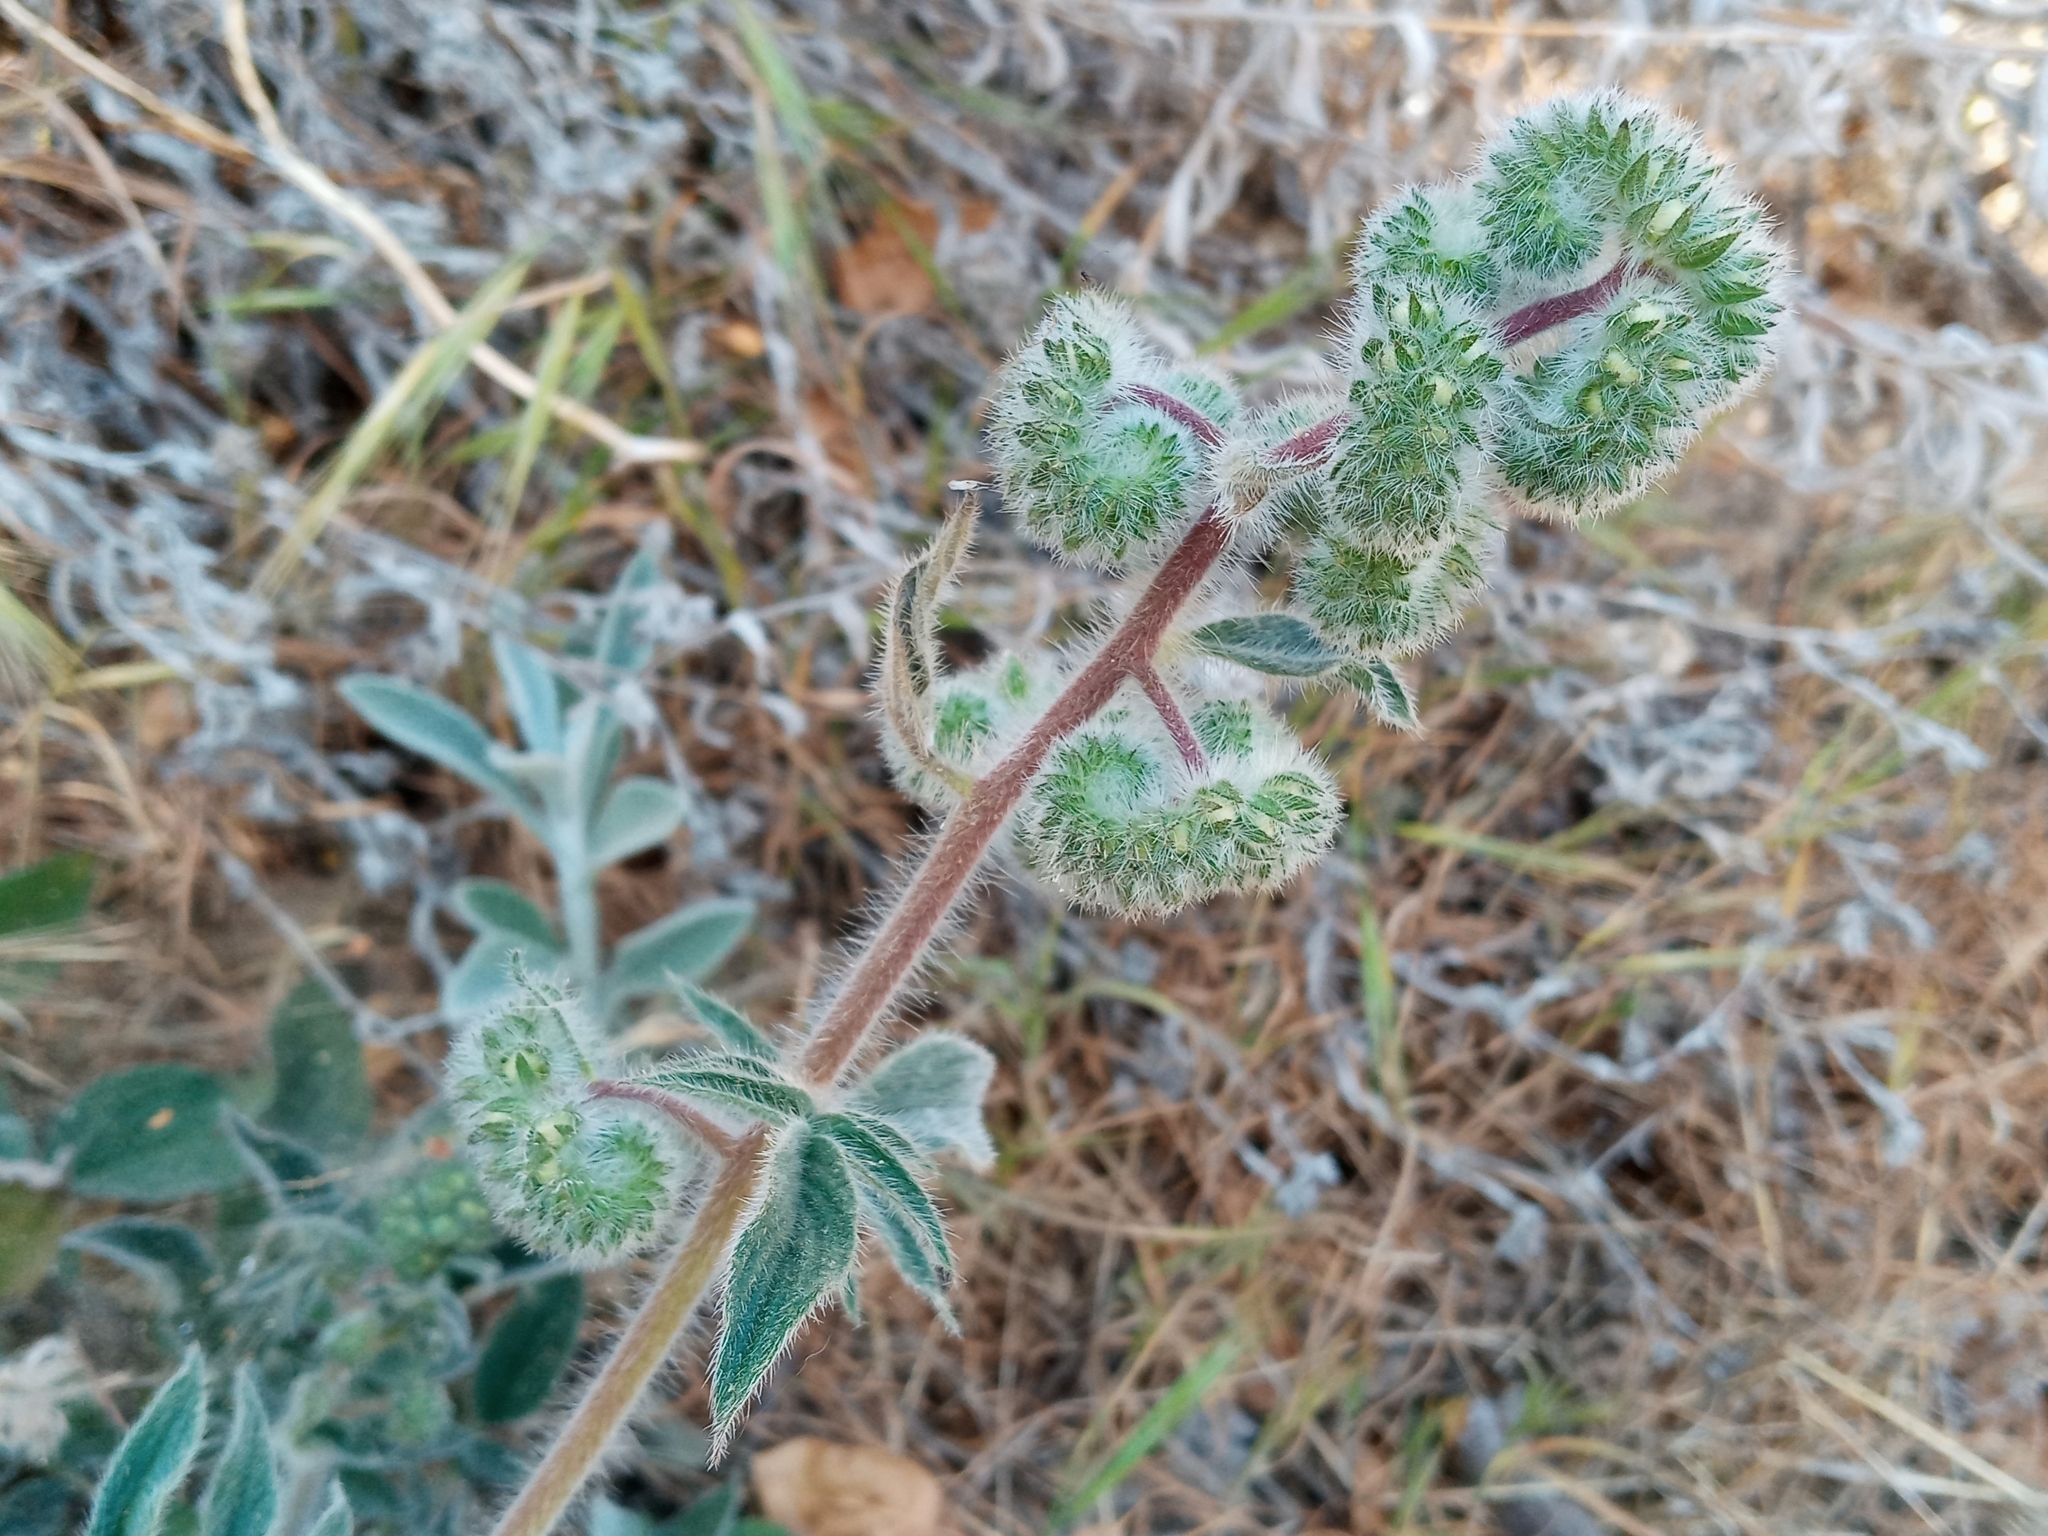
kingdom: Plantae
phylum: Tracheophyta
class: Magnoliopsida
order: Boraginales
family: Hydrophyllaceae
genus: Phacelia
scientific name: Phacelia imbricata
